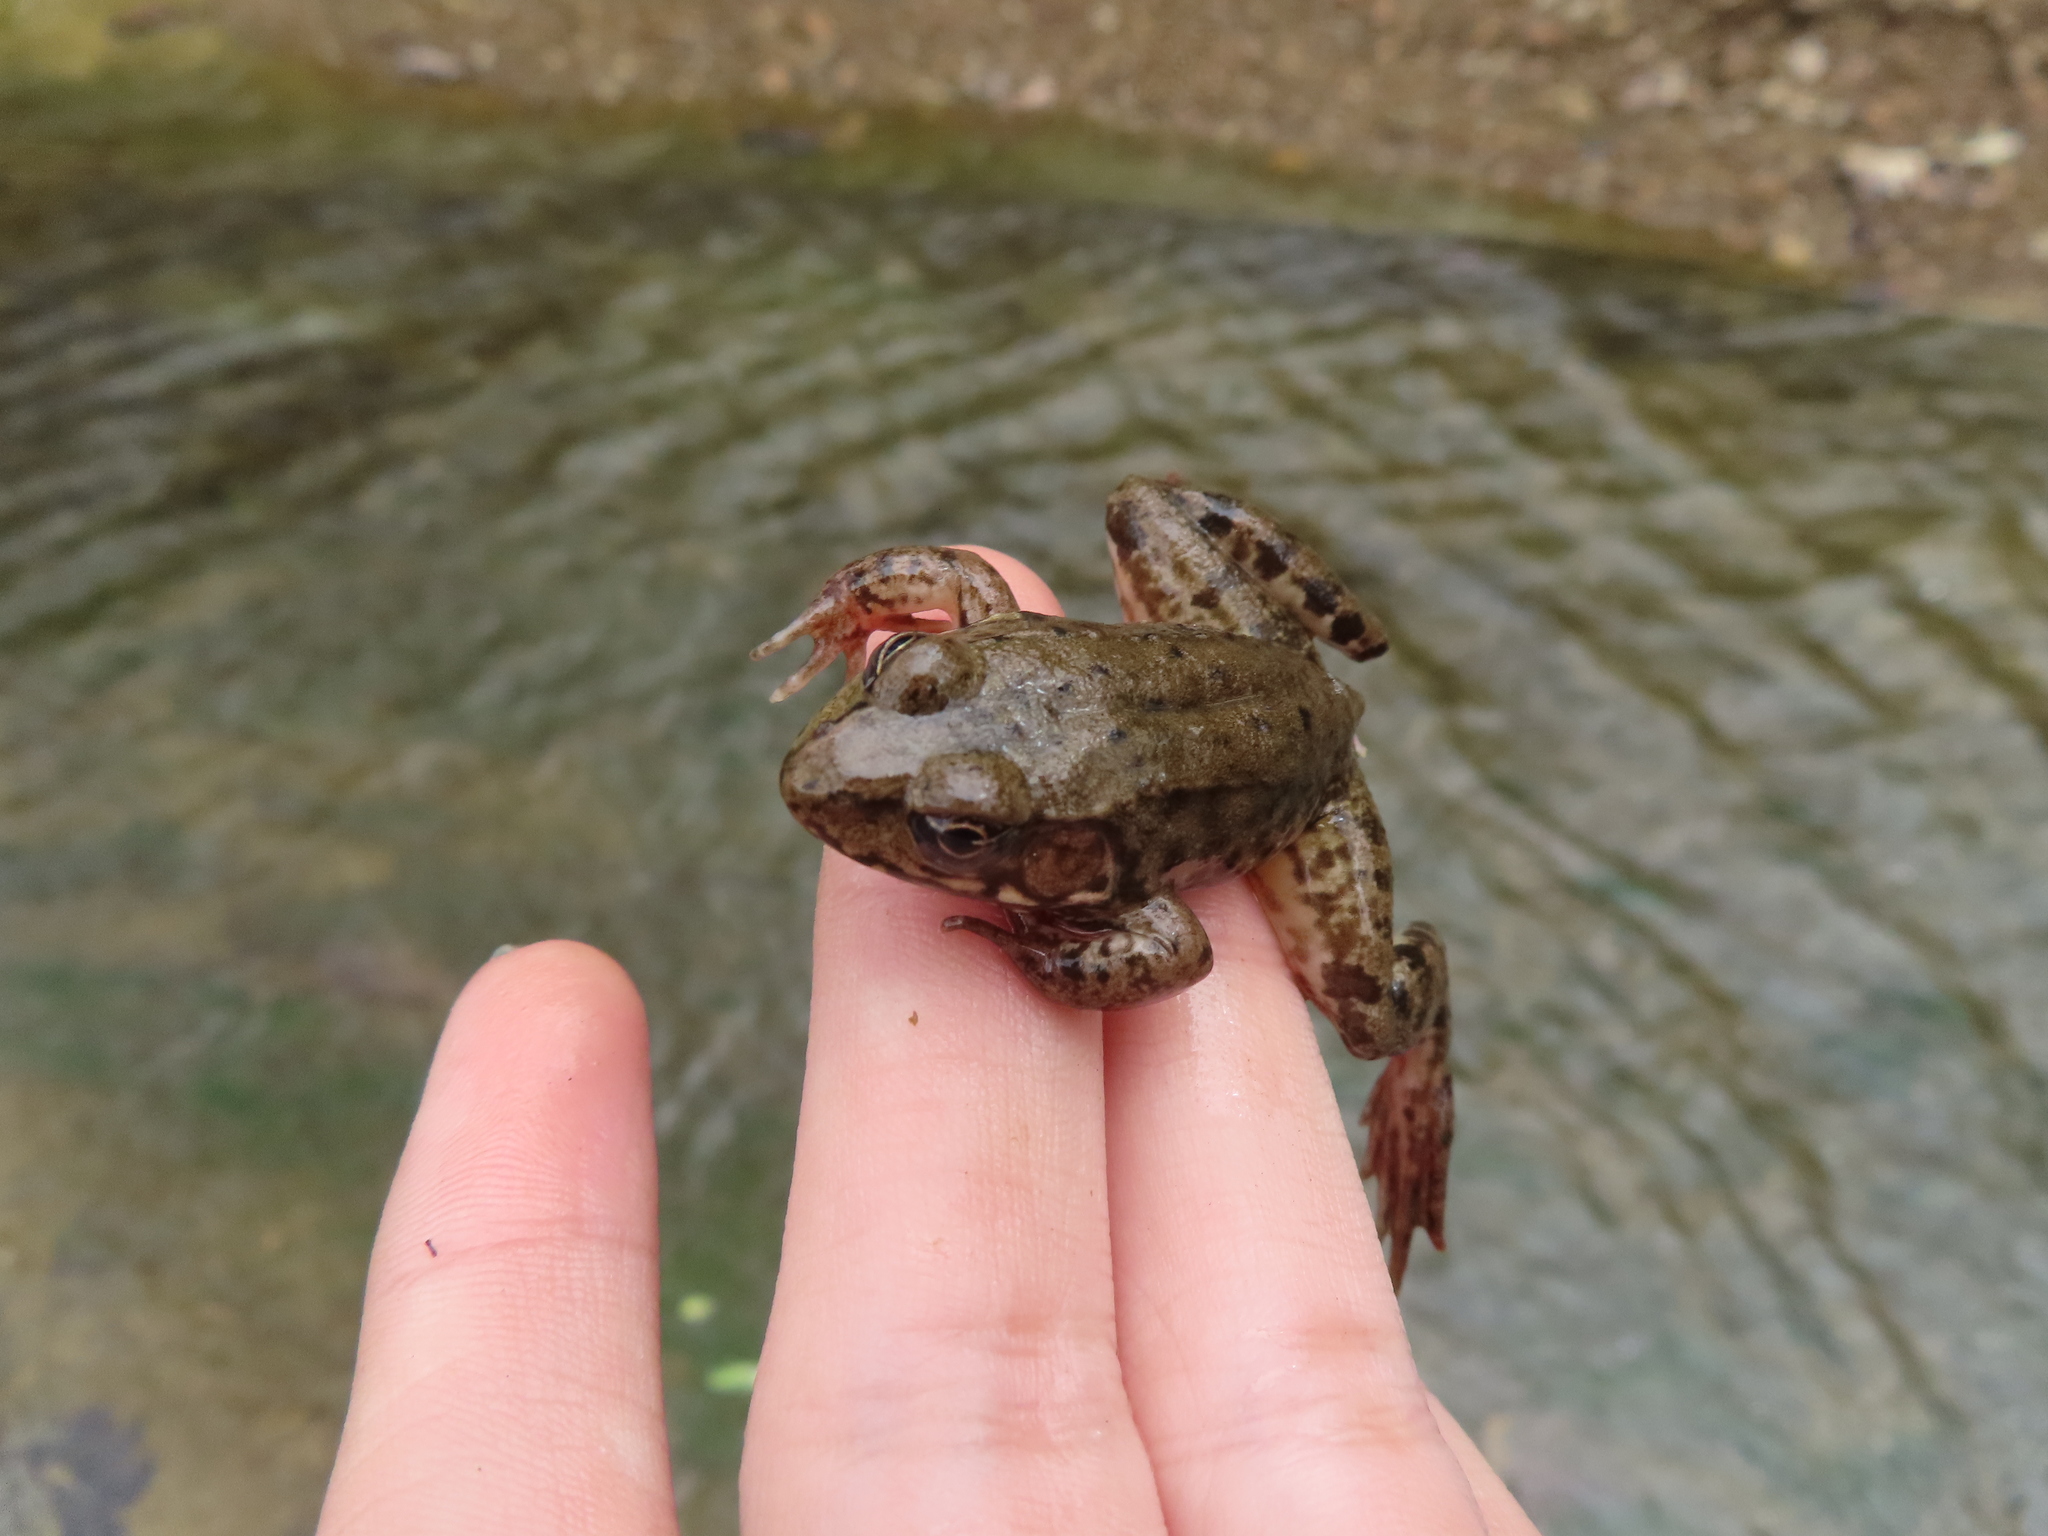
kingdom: Animalia
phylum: Chordata
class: Amphibia
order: Anura
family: Ranidae
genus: Lithobates
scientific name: Lithobates clamitans
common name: Green frog
